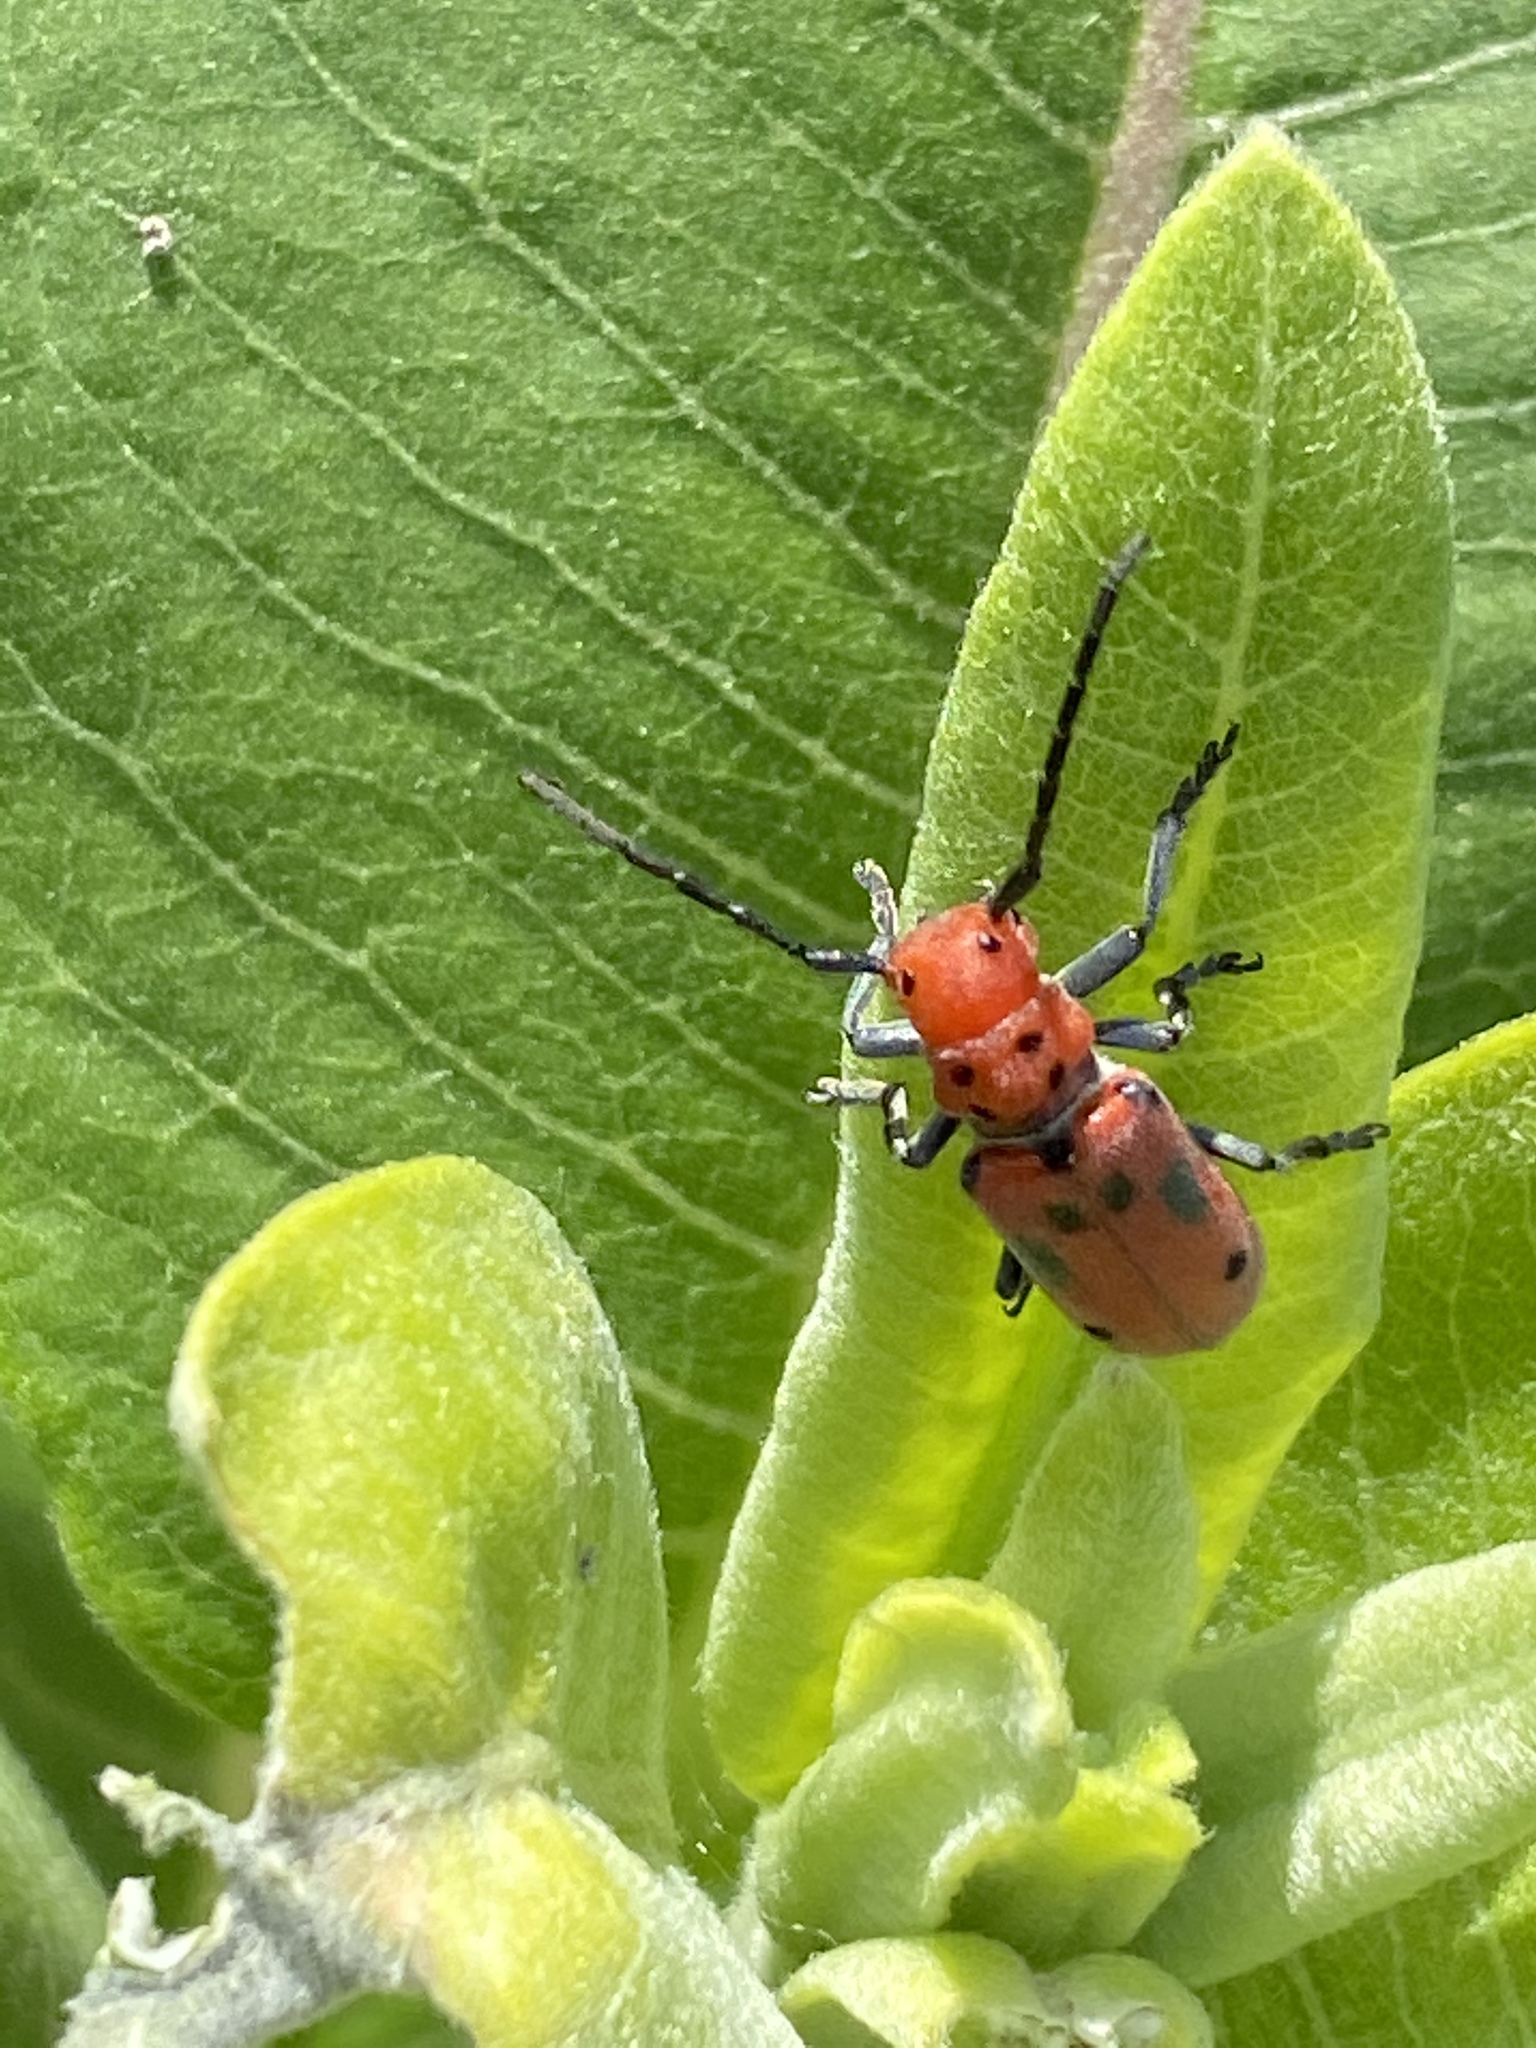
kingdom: Animalia
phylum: Arthropoda
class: Insecta
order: Coleoptera
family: Cerambycidae
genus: Tetraopes
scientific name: Tetraopes tetrophthalmus
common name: Red milkweed beetle
